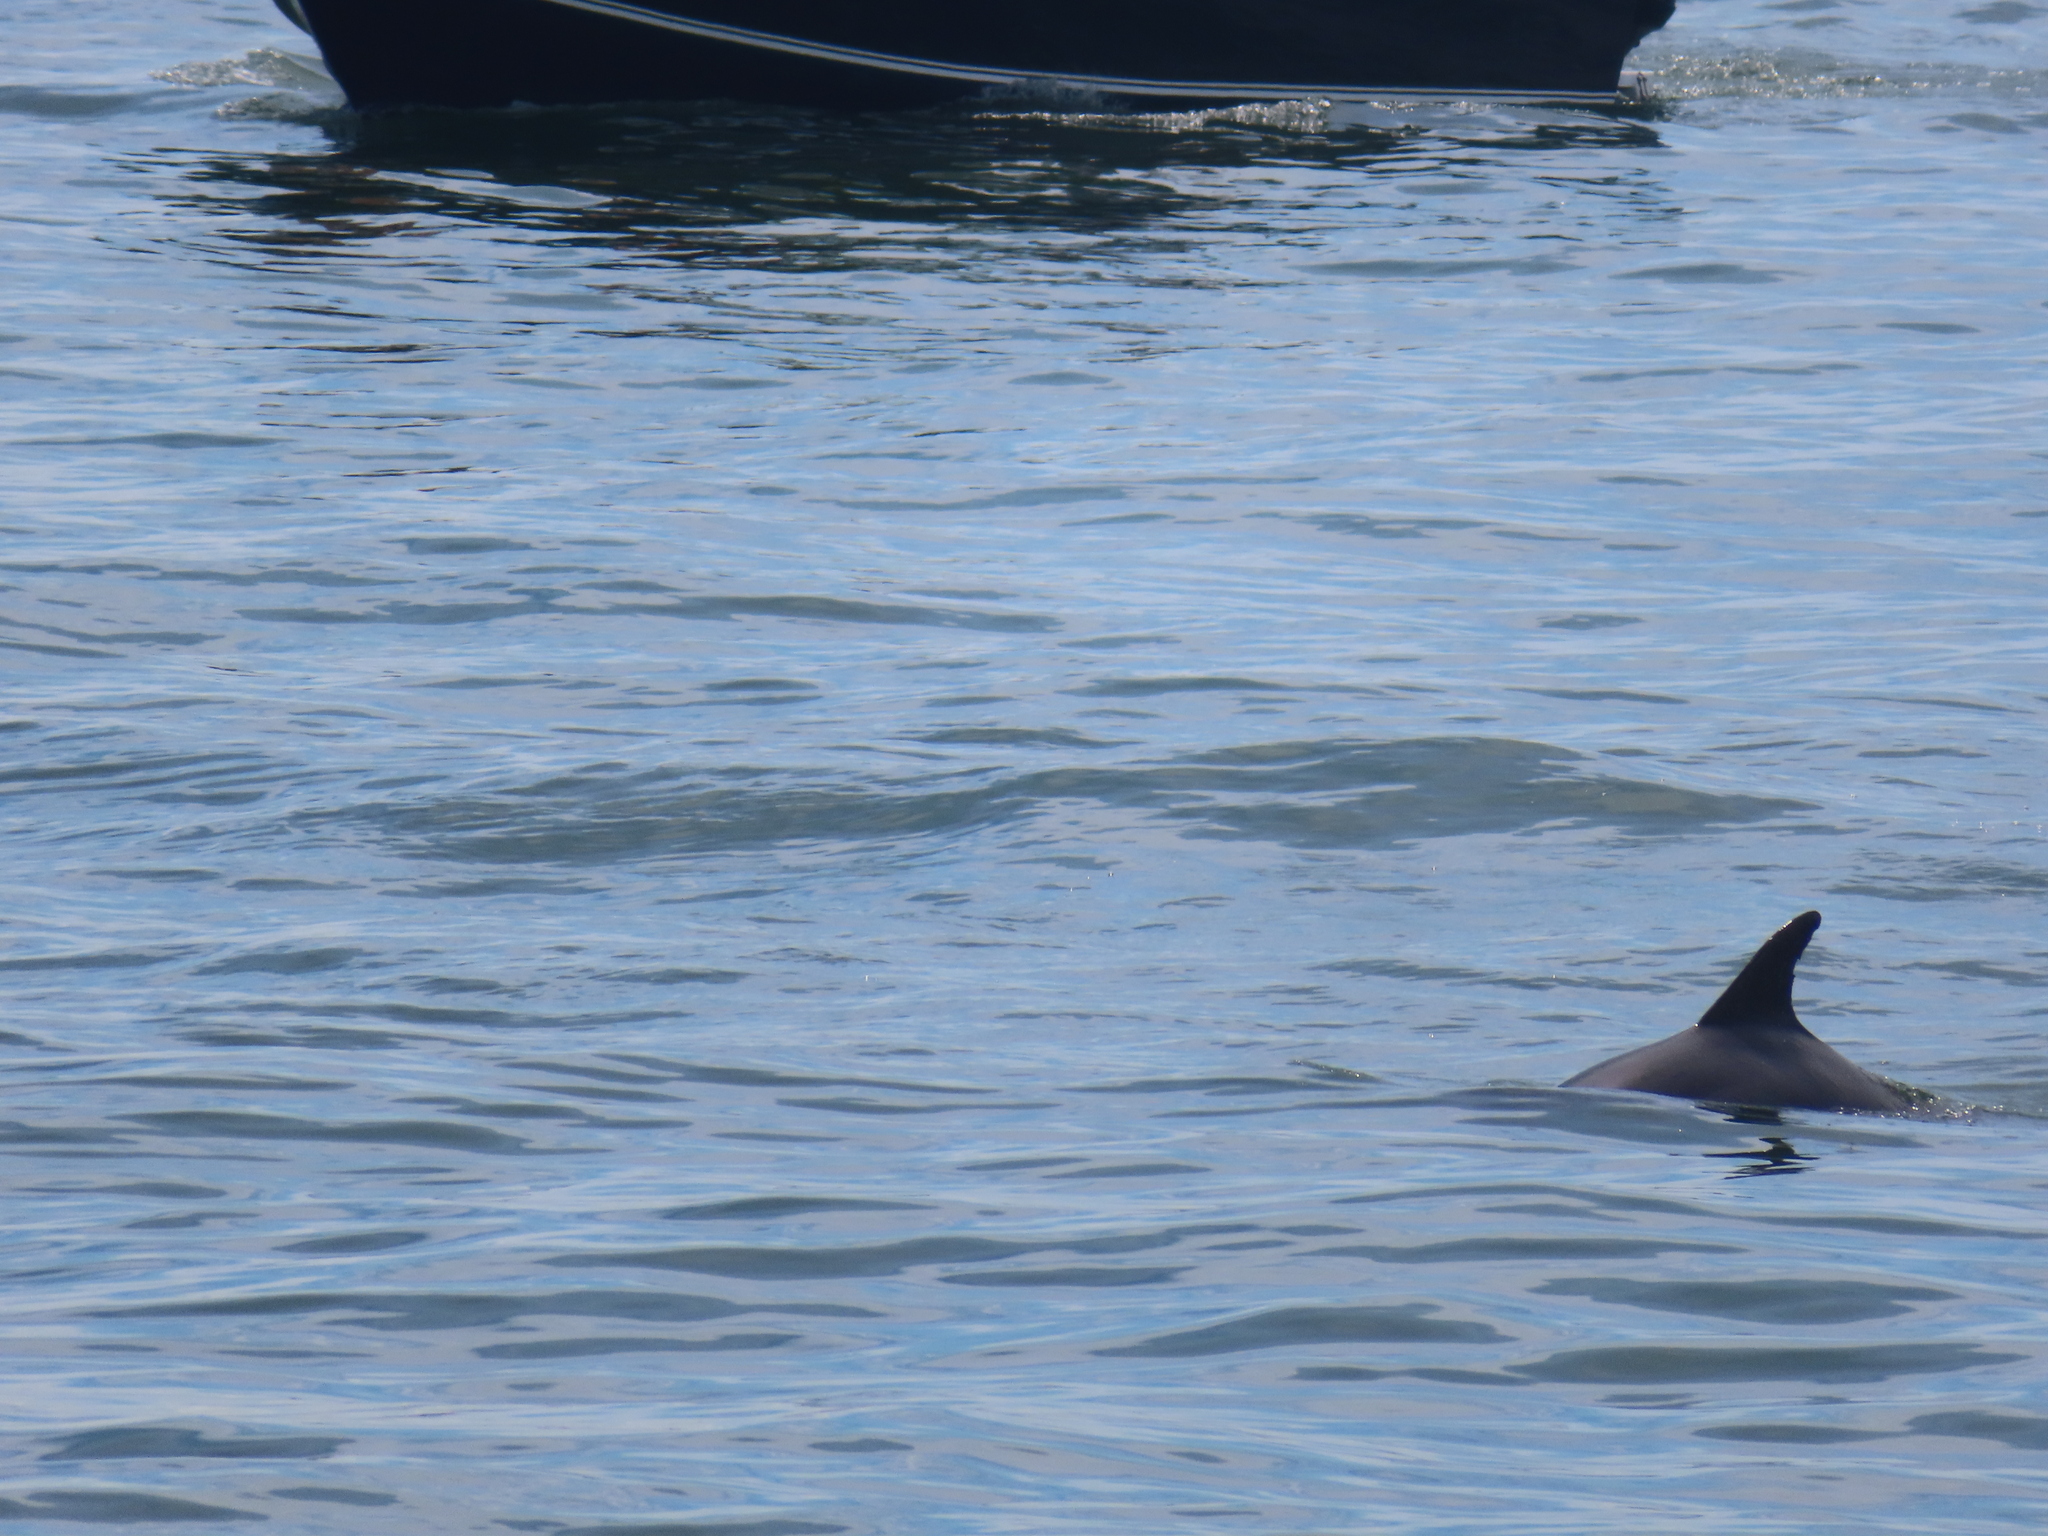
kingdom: Animalia
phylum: Chordata
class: Mammalia
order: Cetacea
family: Delphinidae
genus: Tursiops
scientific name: Tursiops truncatus
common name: Bottlenose dolphin
